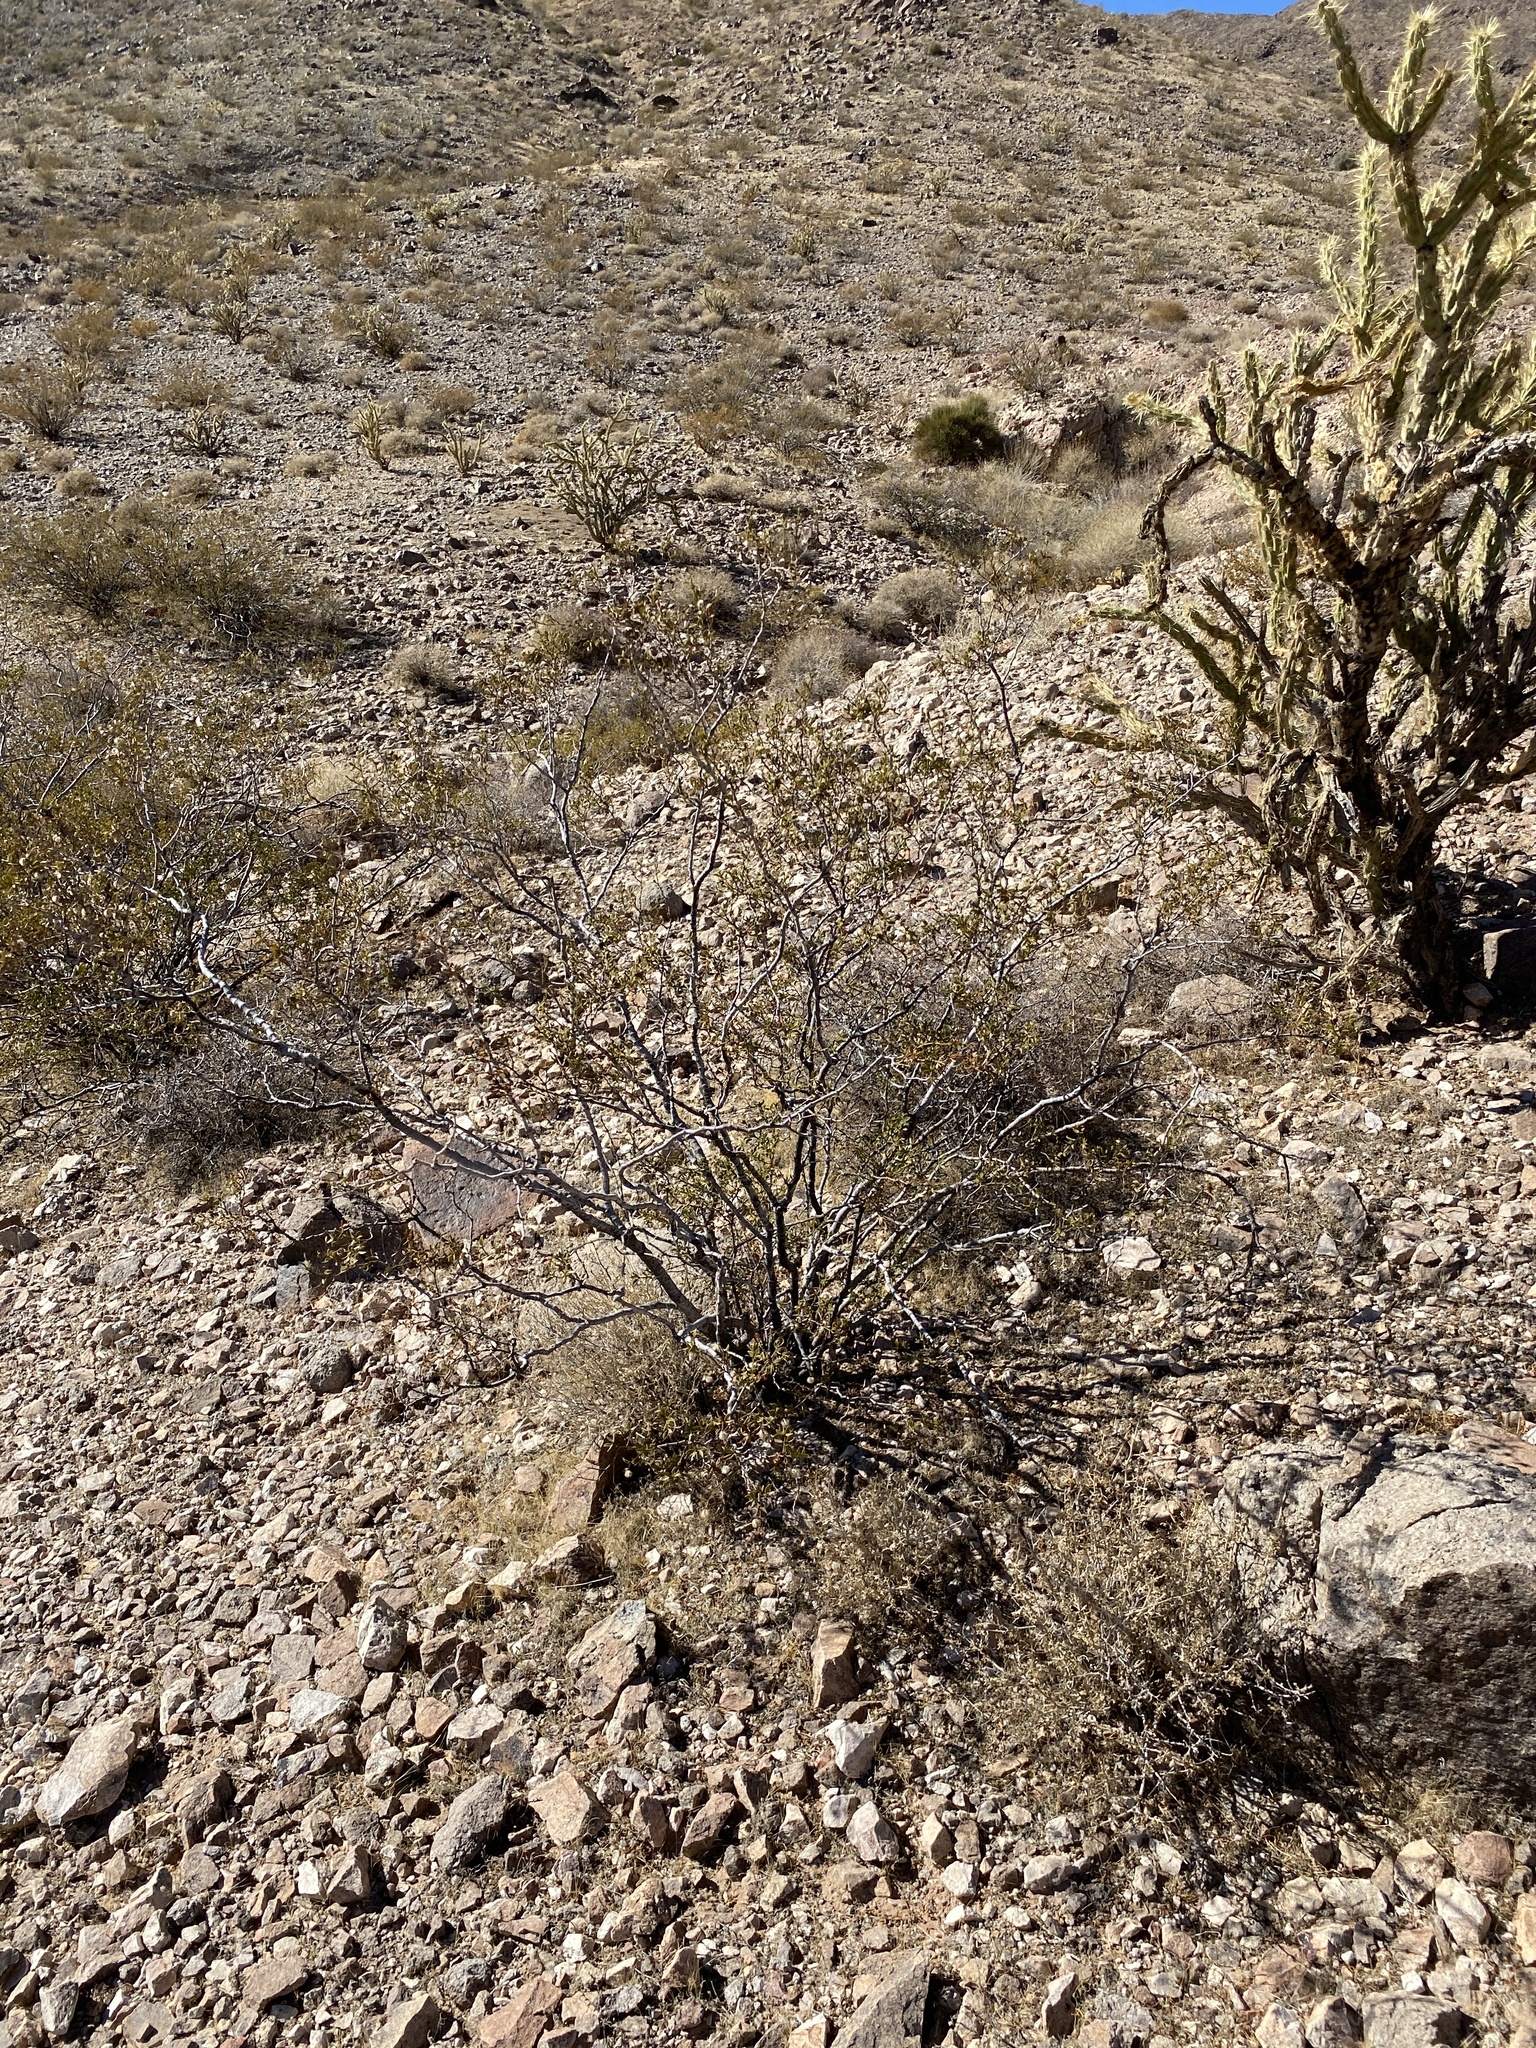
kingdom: Plantae
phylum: Tracheophyta
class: Magnoliopsida
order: Zygophyllales
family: Zygophyllaceae
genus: Larrea
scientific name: Larrea tridentata
